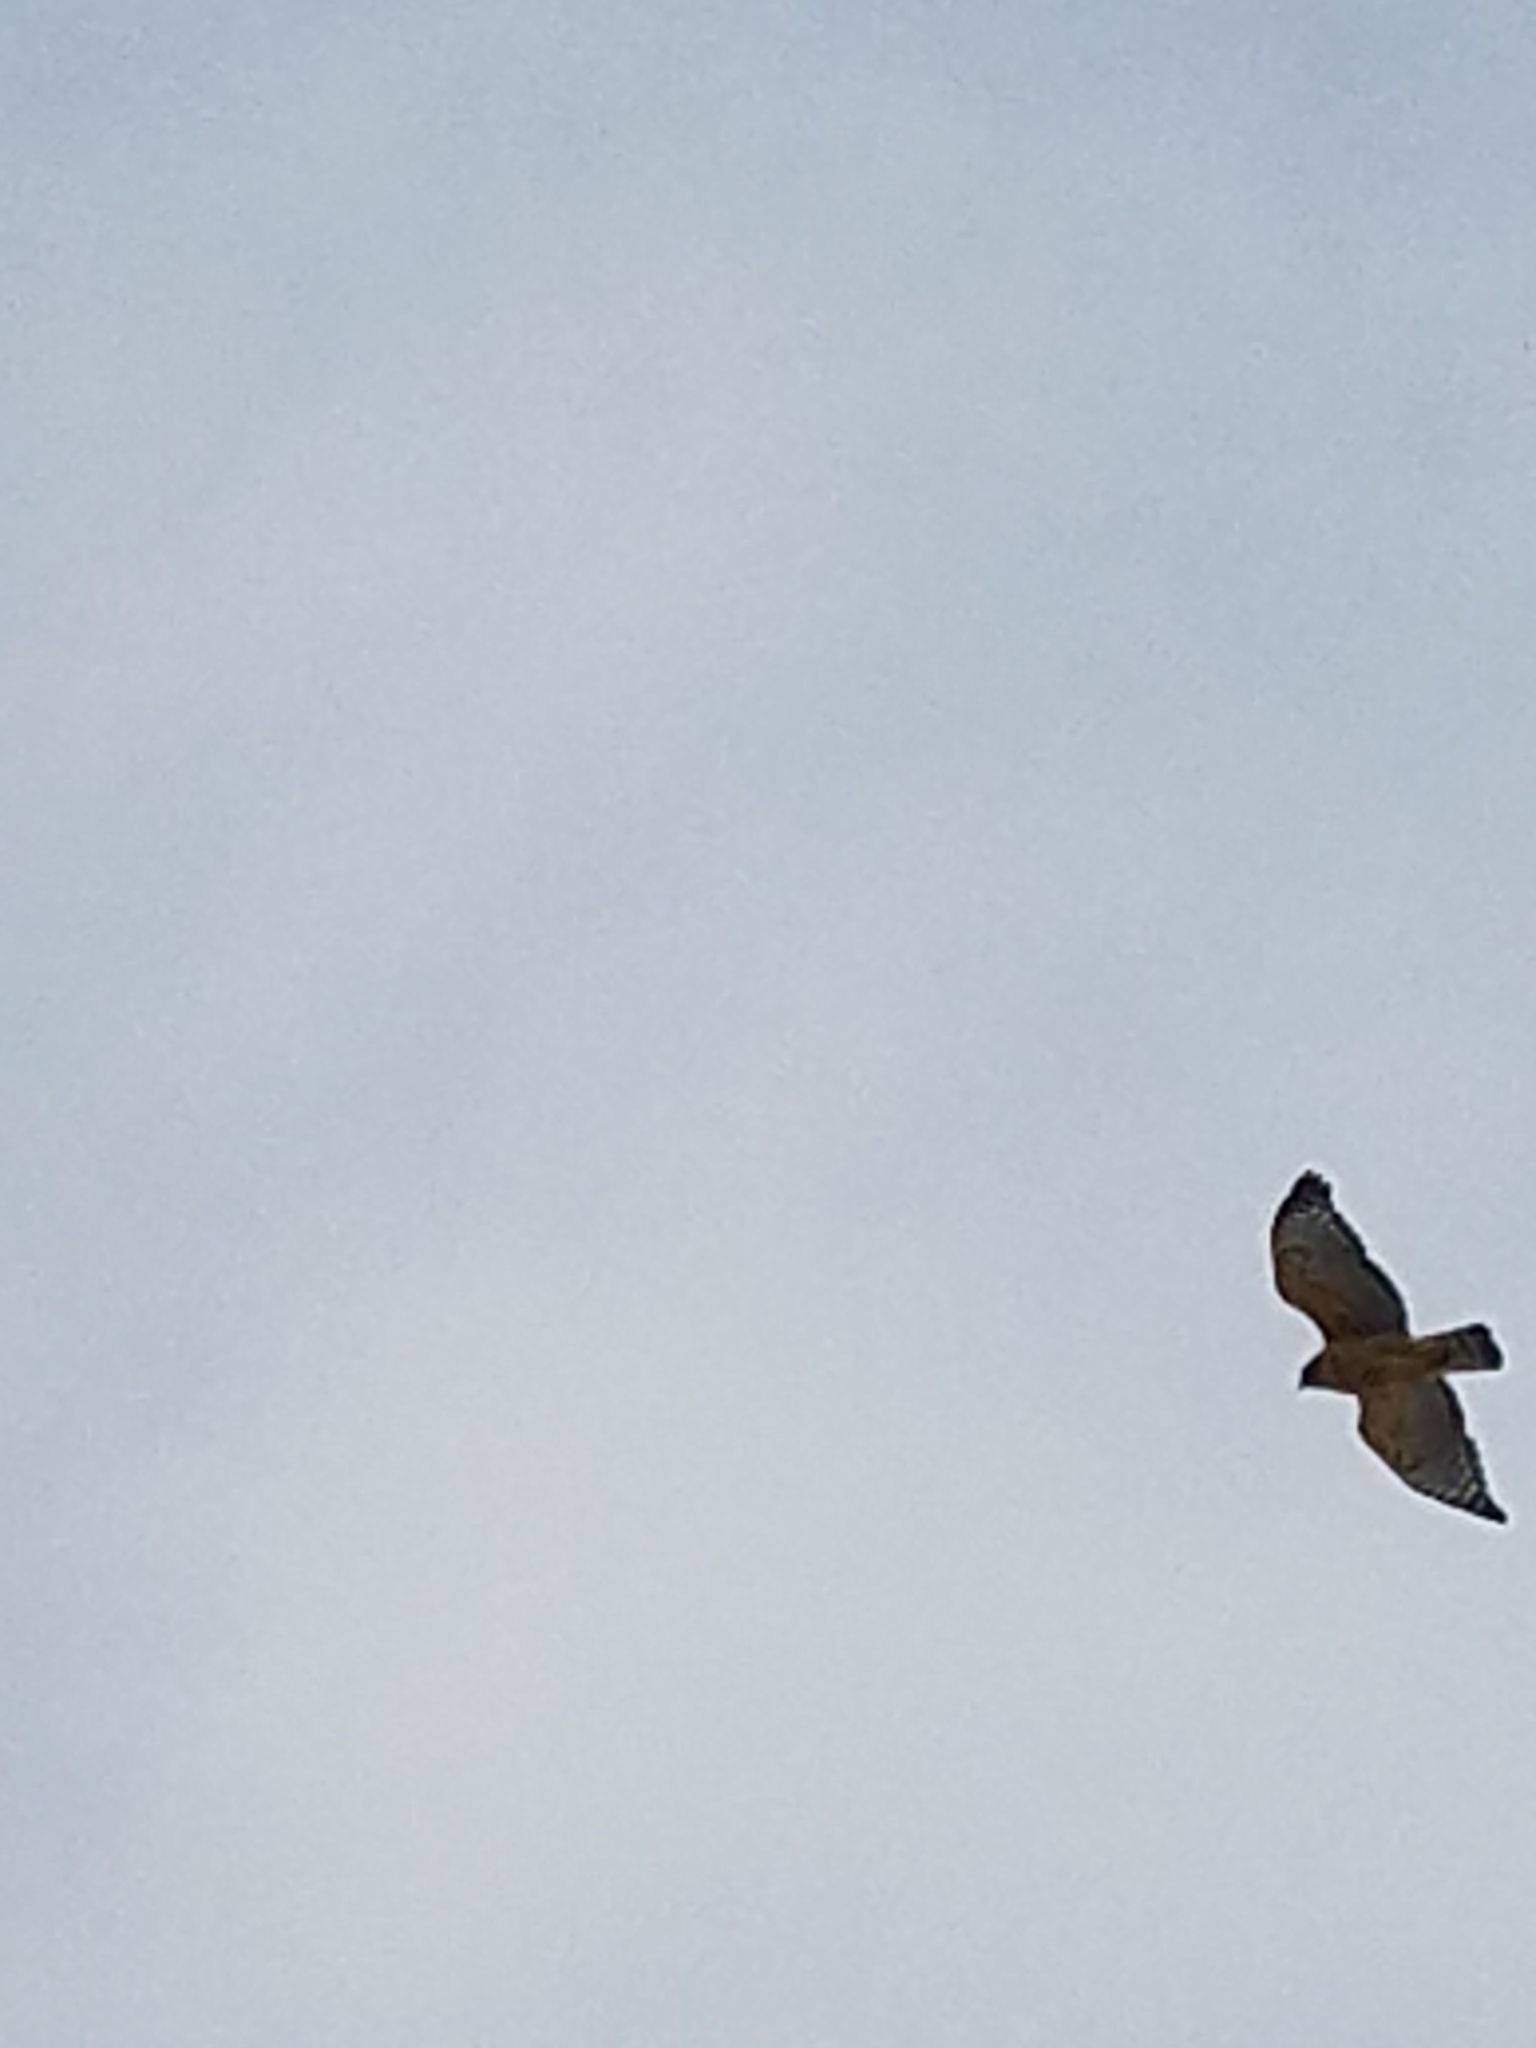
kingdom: Animalia
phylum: Chordata
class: Aves
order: Accipitriformes
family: Accipitridae
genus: Buteo
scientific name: Buteo lineatus
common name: Red-shouldered hawk
